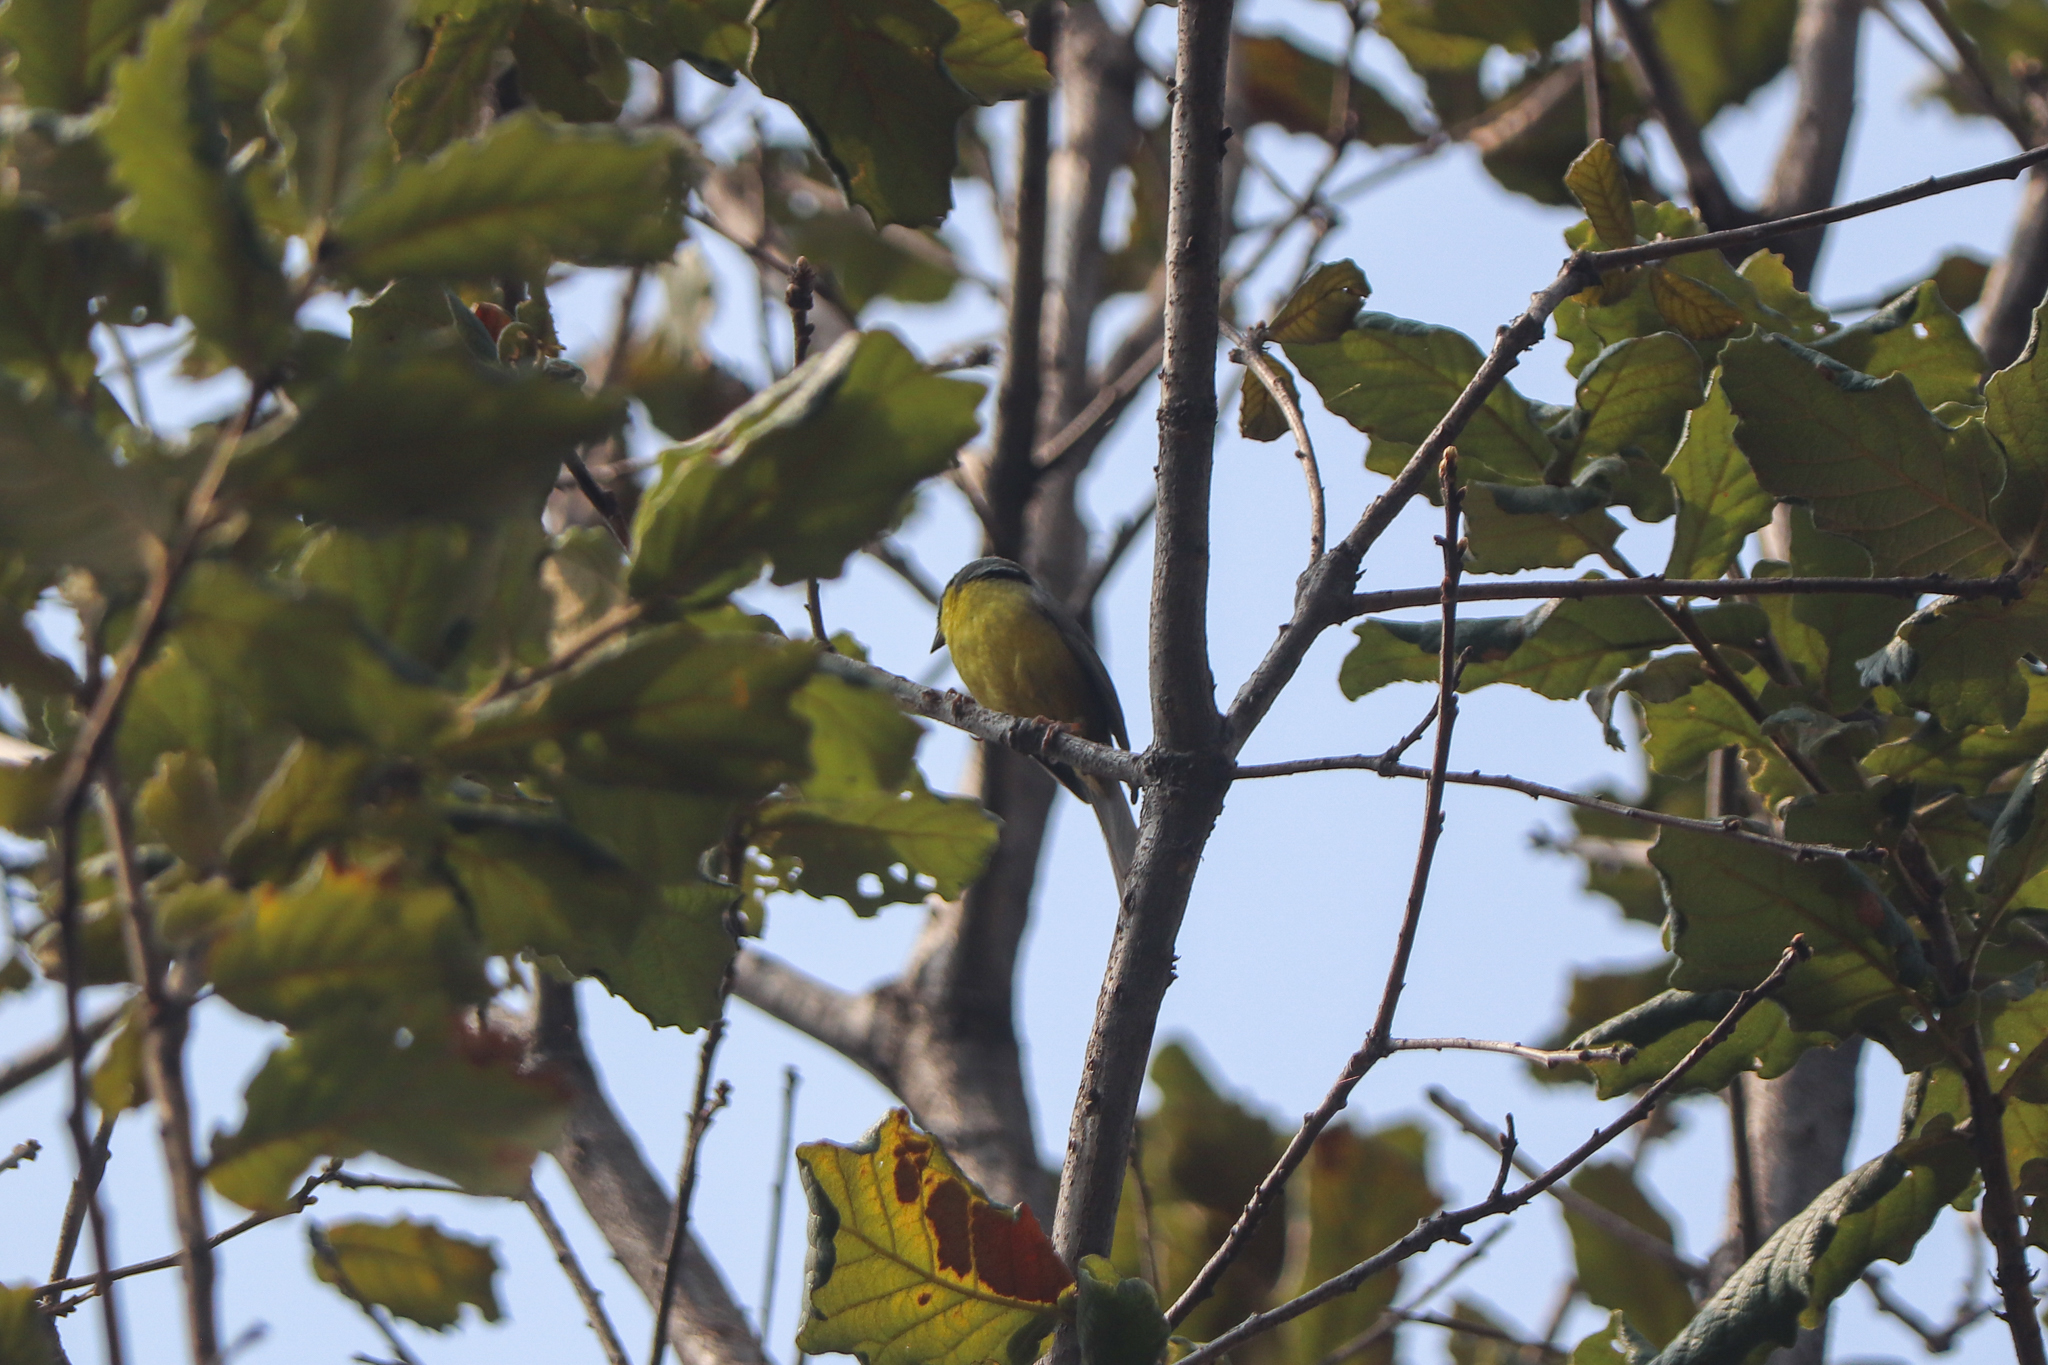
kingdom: Animalia
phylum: Chordata
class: Aves
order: Passeriformes
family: Passerellidae
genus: Atlapetes
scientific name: Atlapetes pileatus
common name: Rufous-capped brush-finch
